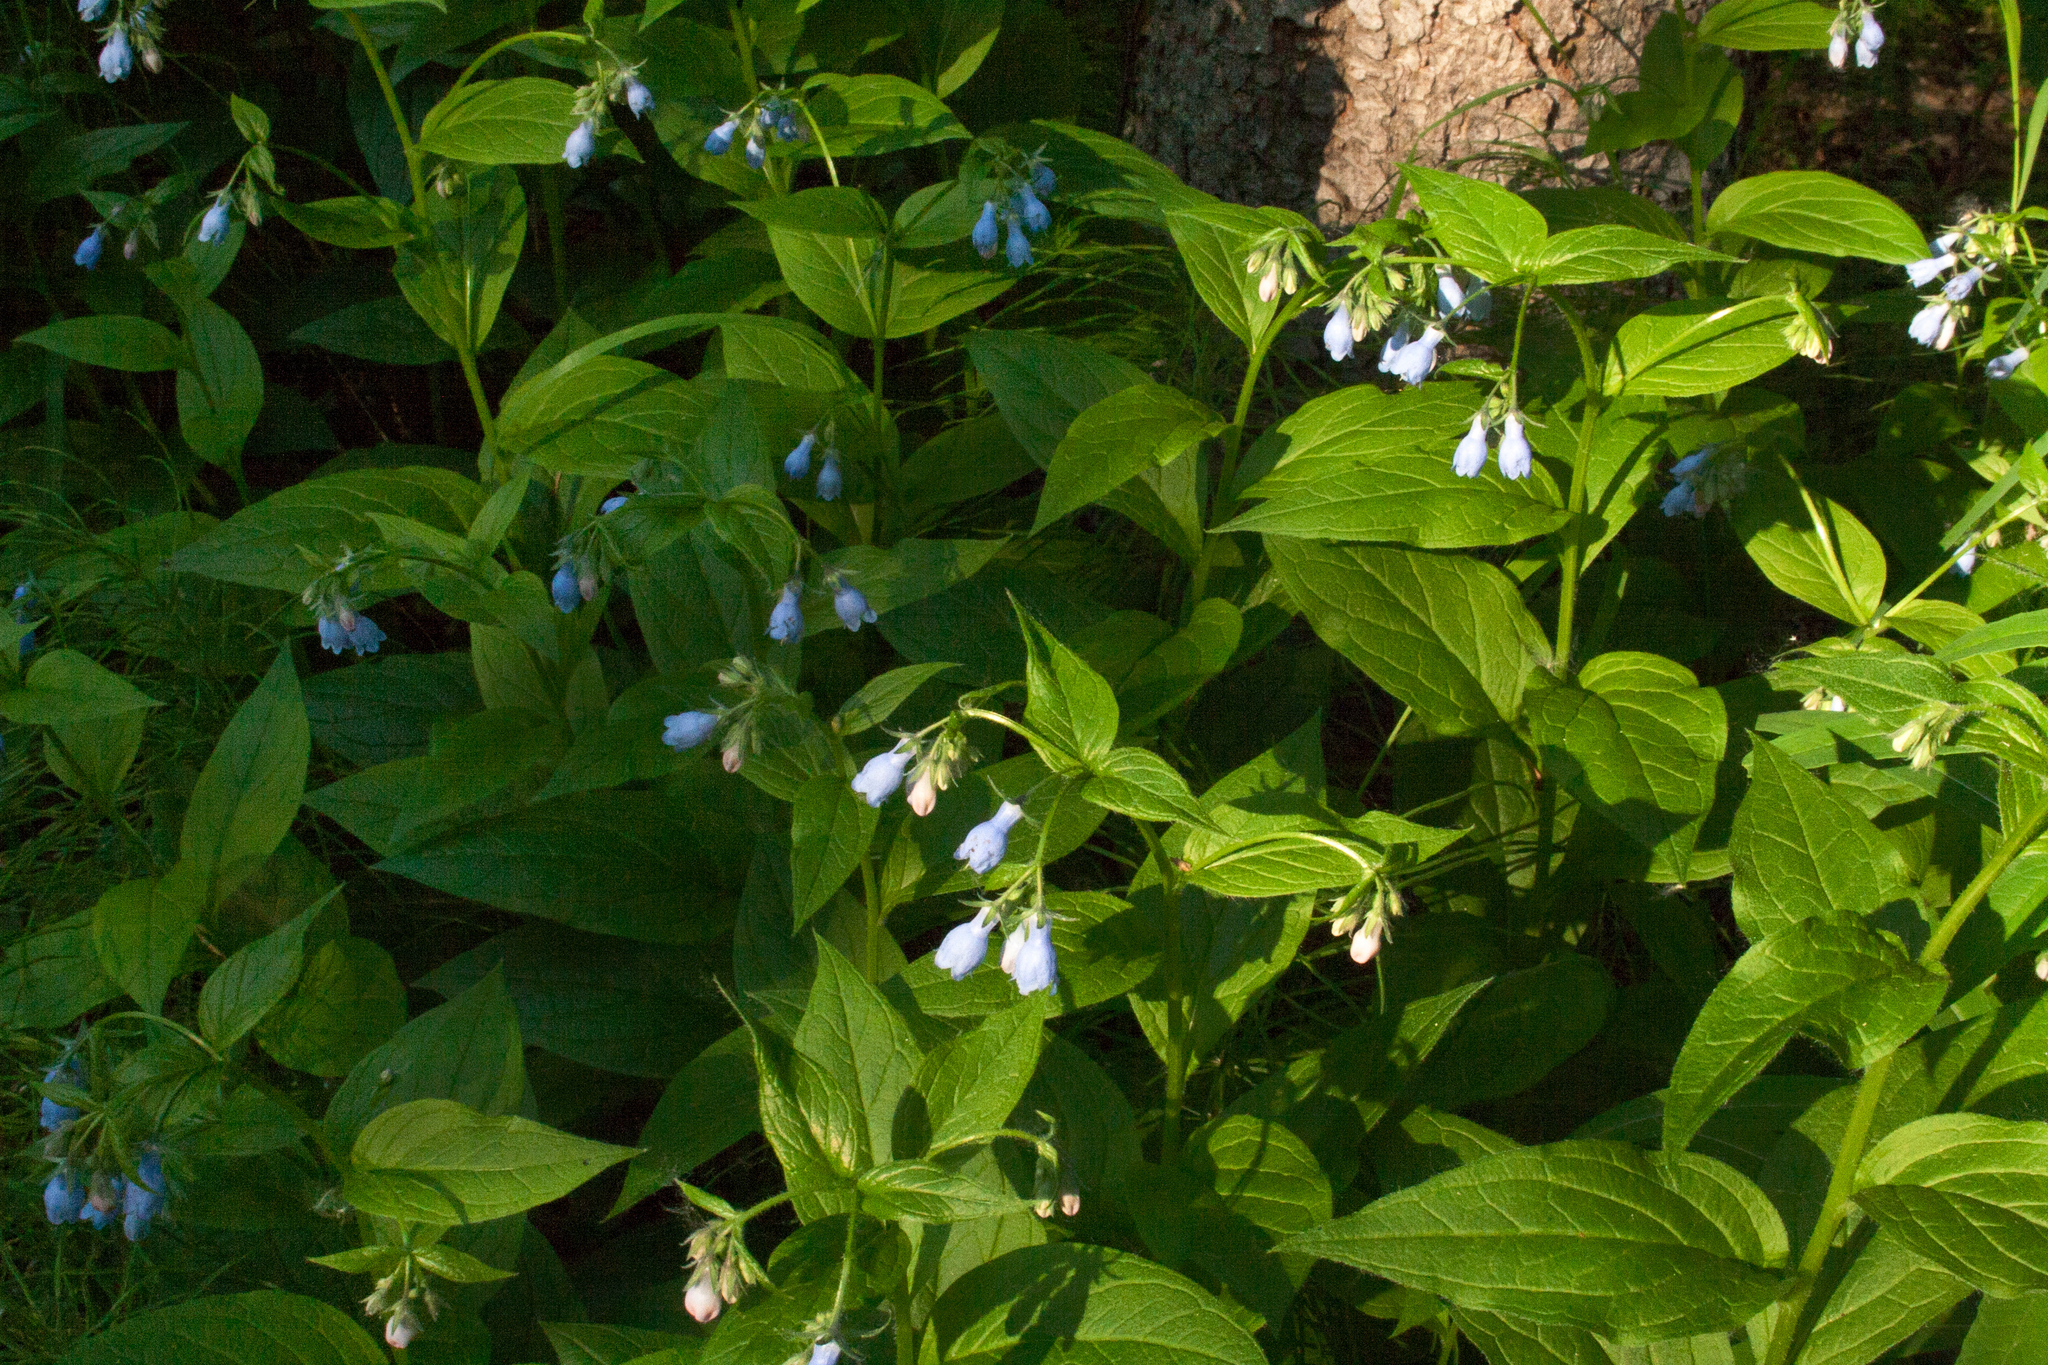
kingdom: Plantae
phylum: Tracheophyta
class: Magnoliopsida
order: Boraginales
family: Boraginaceae
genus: Mertensia
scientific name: Mertensia paniculata
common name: Panicled bluebells
